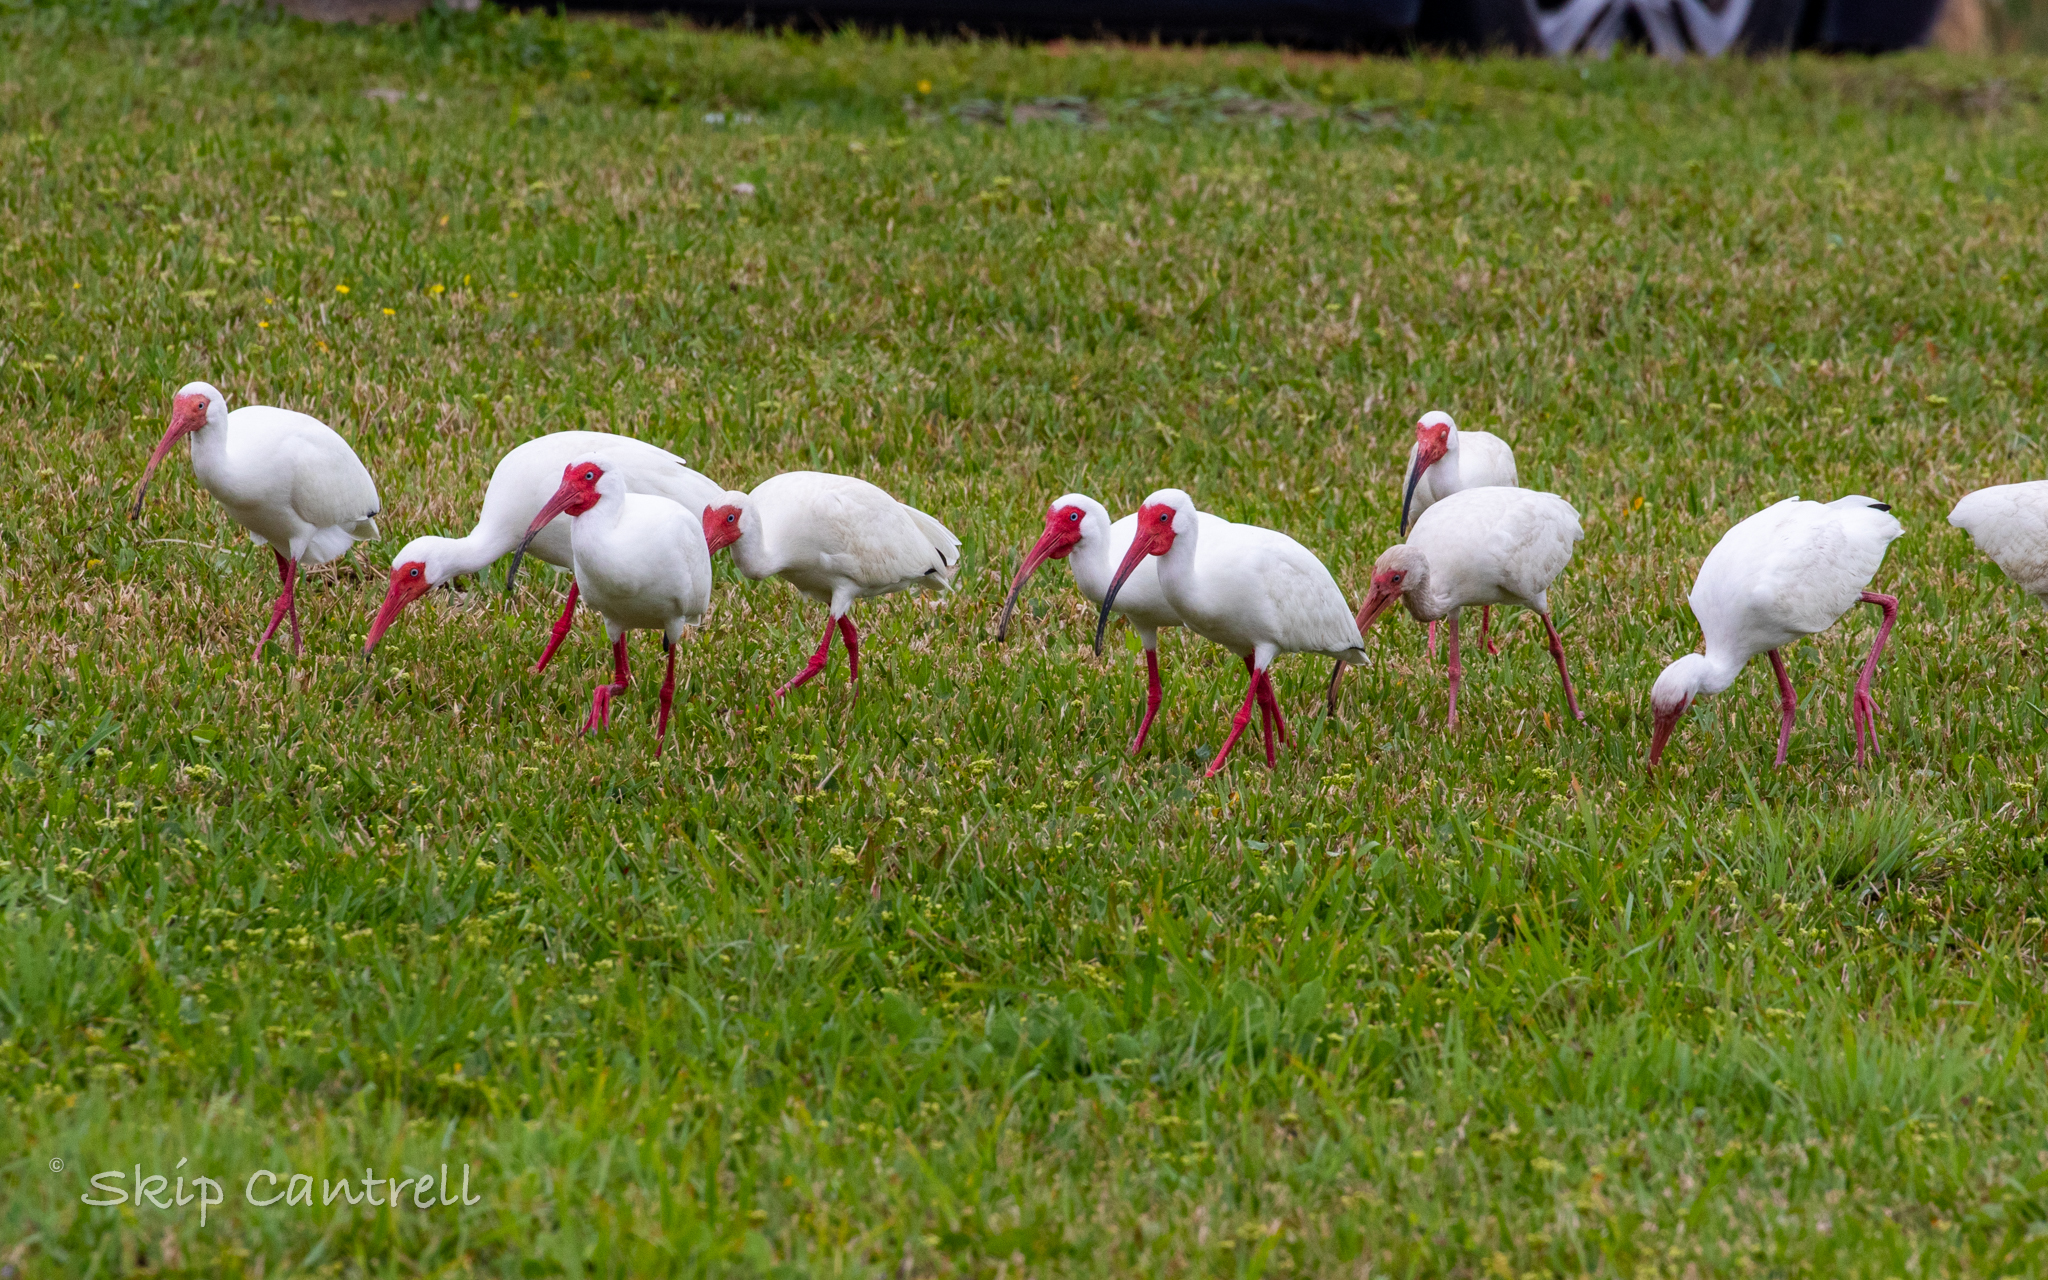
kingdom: Animalia
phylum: Chordata
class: Aves
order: Pelecaniformes
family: Threskiornithidae
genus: Eudocimus
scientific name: Eudocimus albus
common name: White ibis
